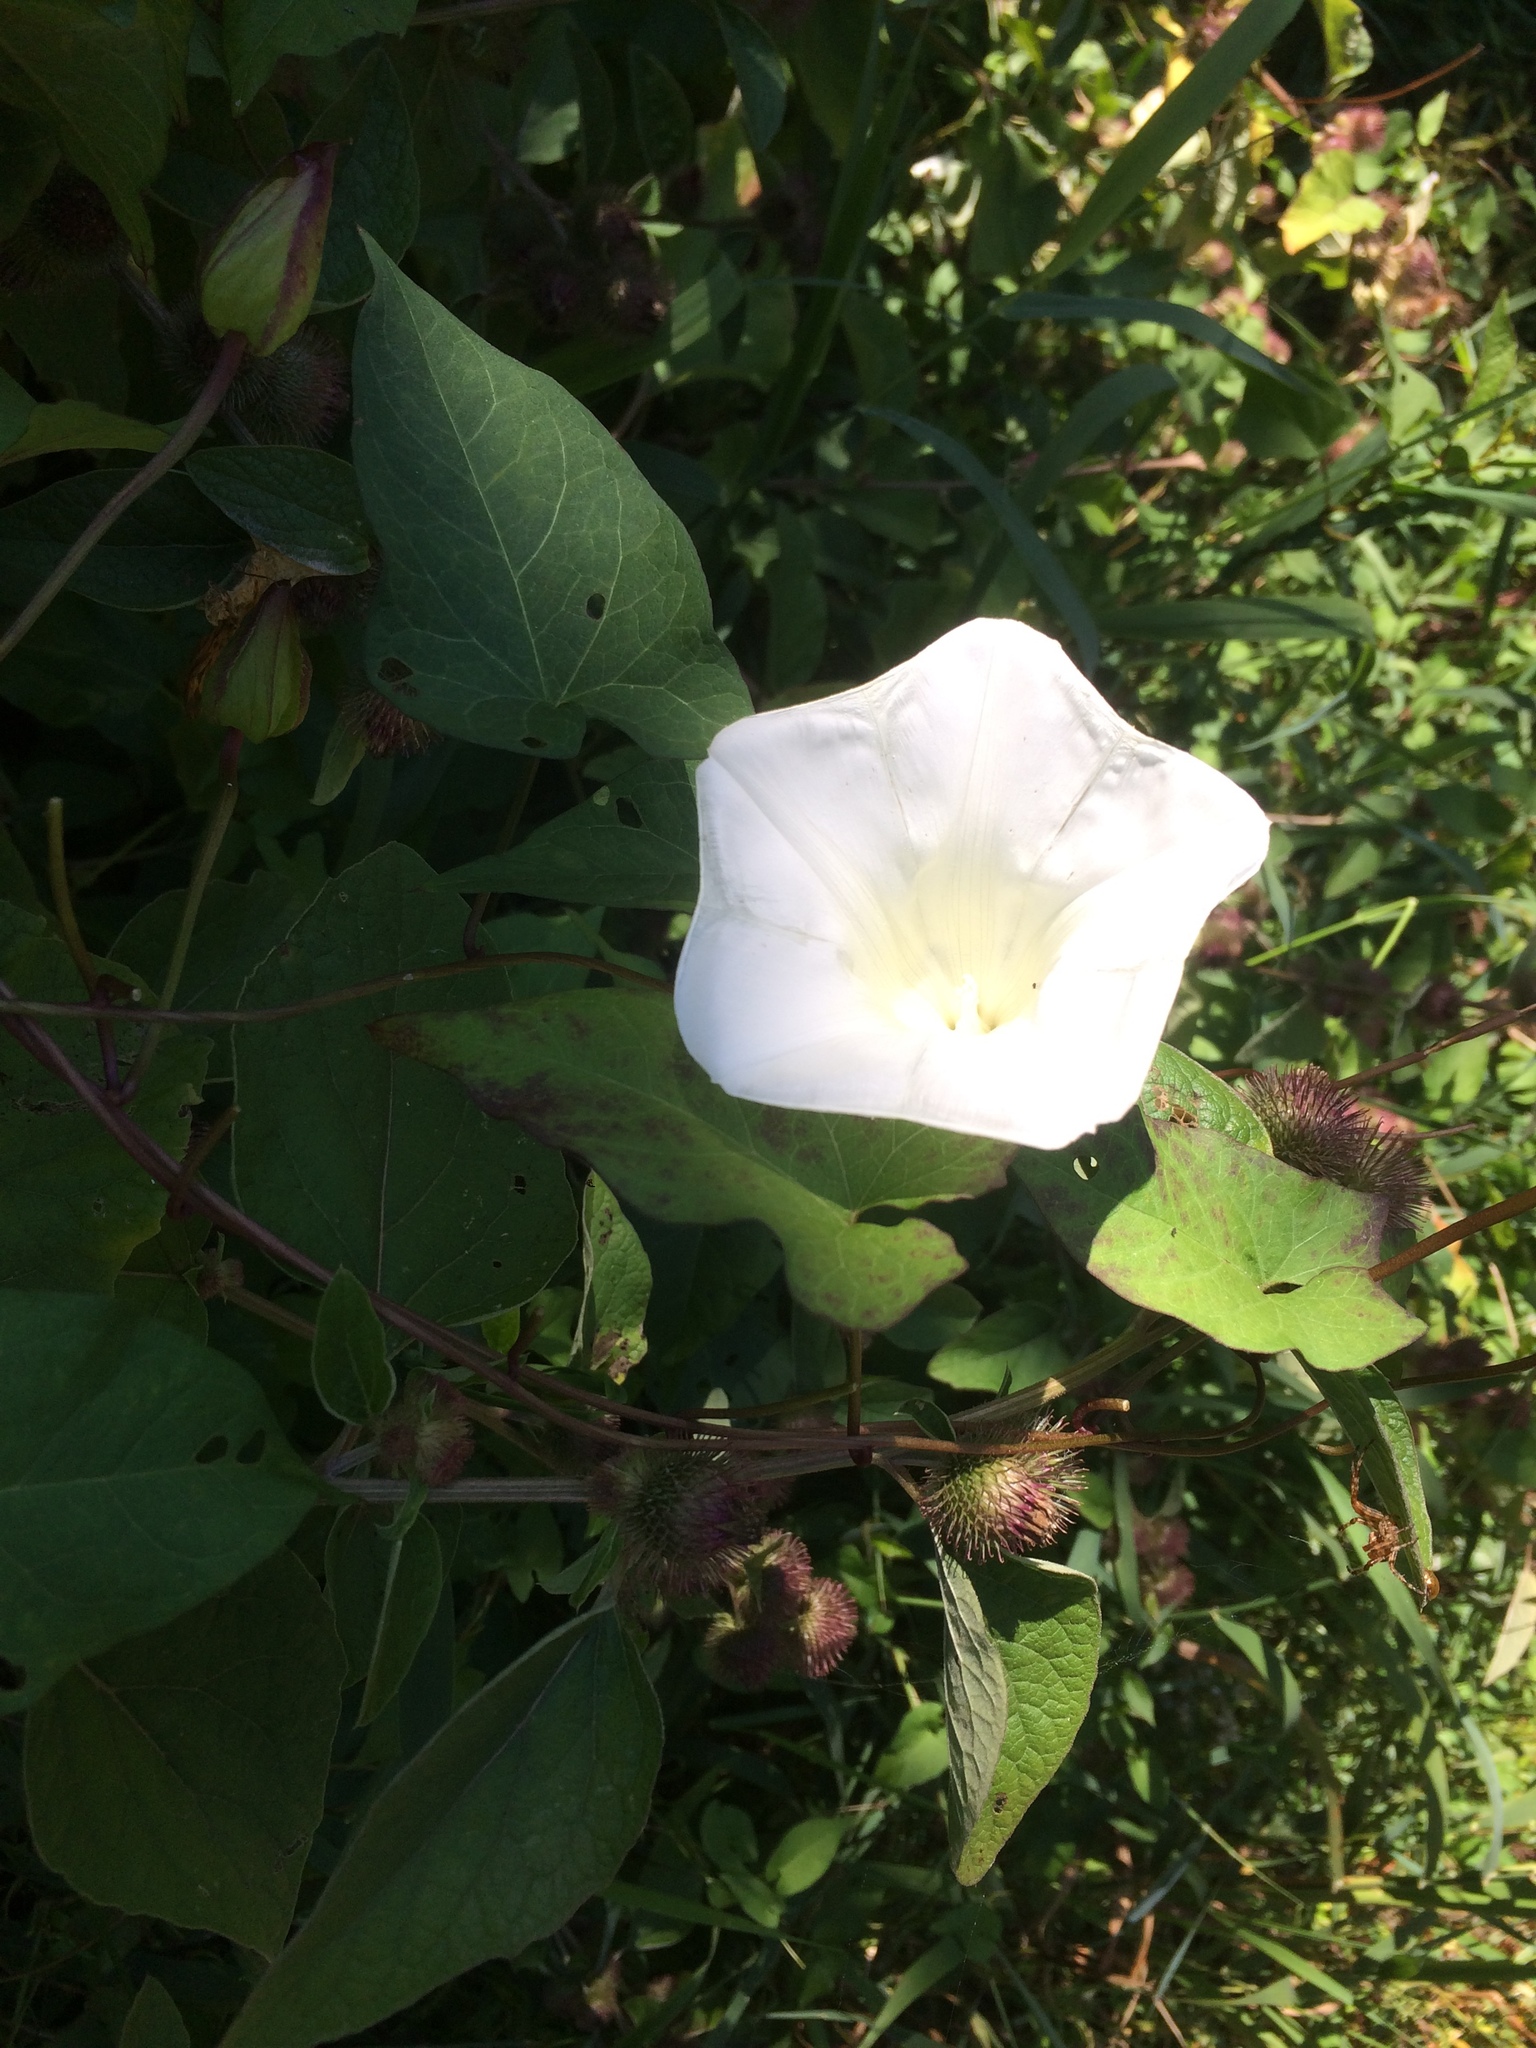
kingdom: Plantae
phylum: Tracheophyta
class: Magnoliopsida
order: Solanales
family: Convolvulaceae
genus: Calystegia
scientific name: Calystegia silvatica
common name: Large bindweed
